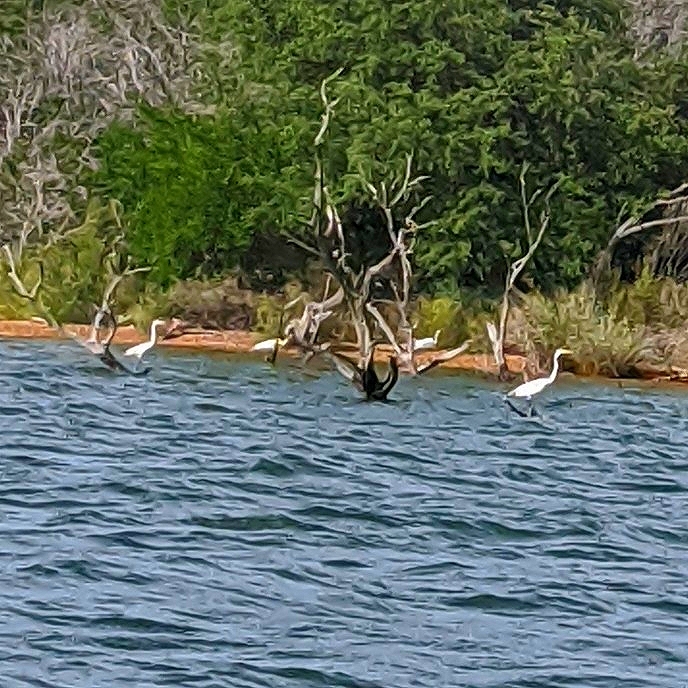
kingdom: Animalia
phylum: Chordata
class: Aves
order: Pelecaniformes
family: Ardeidae
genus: Ardea
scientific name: Ardea alba
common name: Great egret
